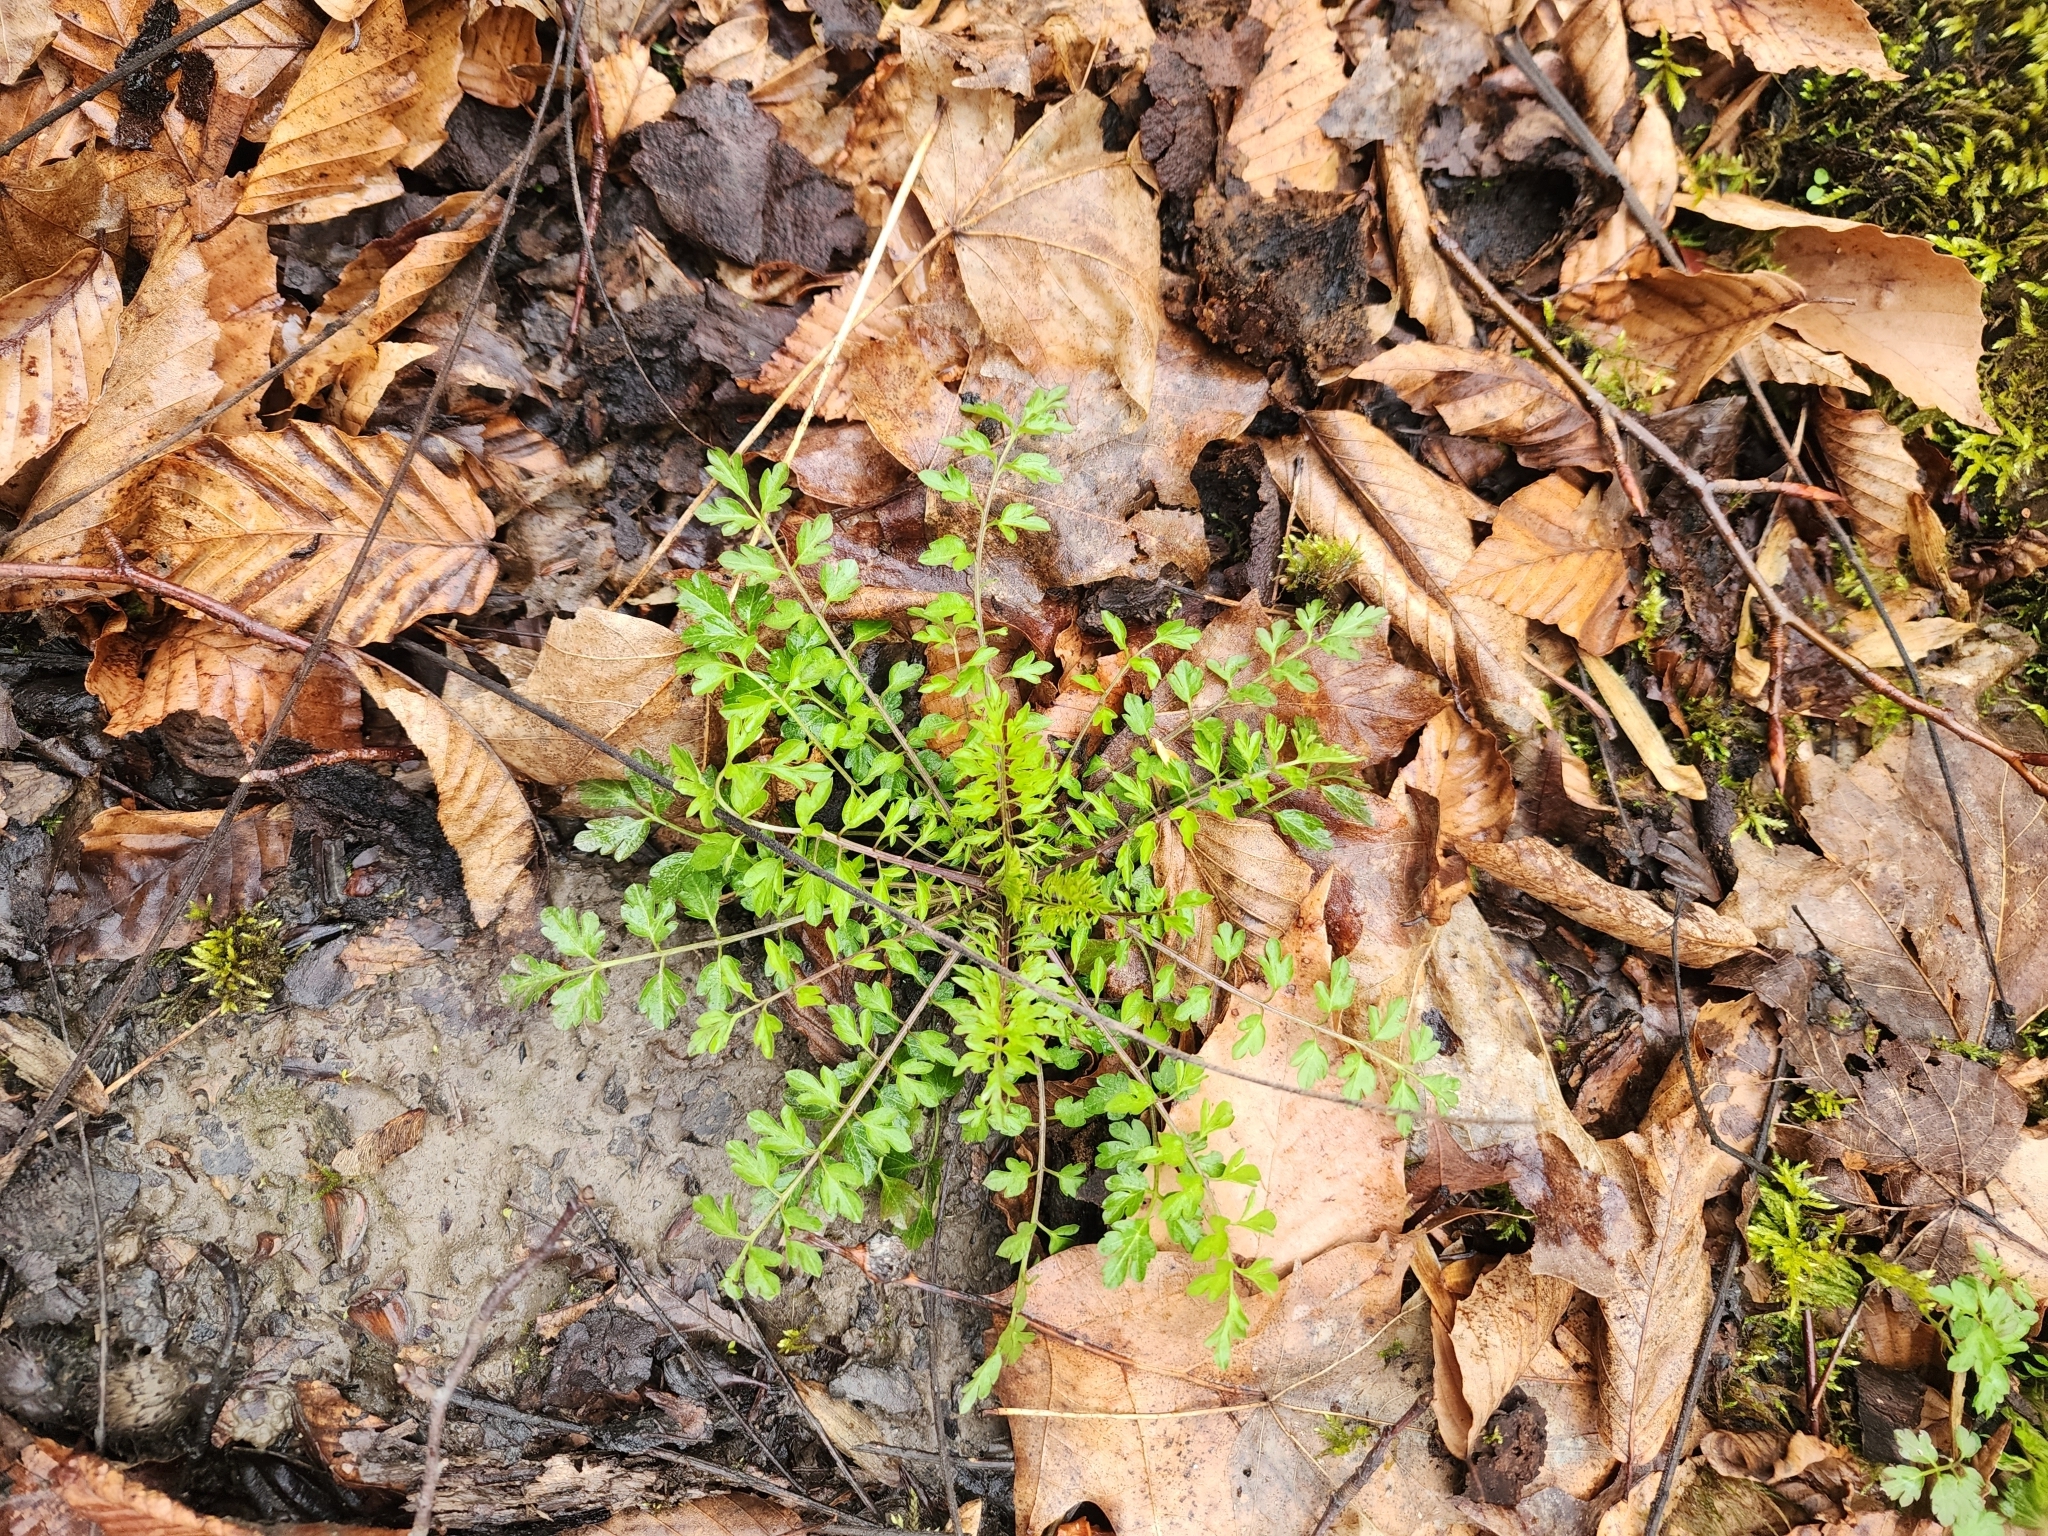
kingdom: Plantae
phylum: Tracheophyta
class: Magnoliopsida
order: Brassicales
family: Brassicaceae
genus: Cardamine
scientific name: Cardamine impatiens
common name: Narrow-leaved bitter-cress
